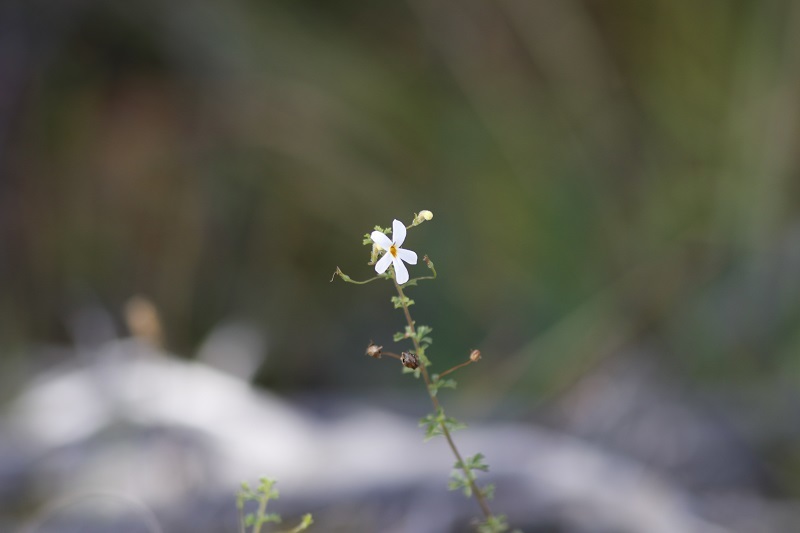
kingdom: Plantae
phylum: Tracheophyta
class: Magnoliopsida
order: Lamiales
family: Scrophulariaceae
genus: Jamesbrittenia
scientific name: Jamesbrittenia argentea
